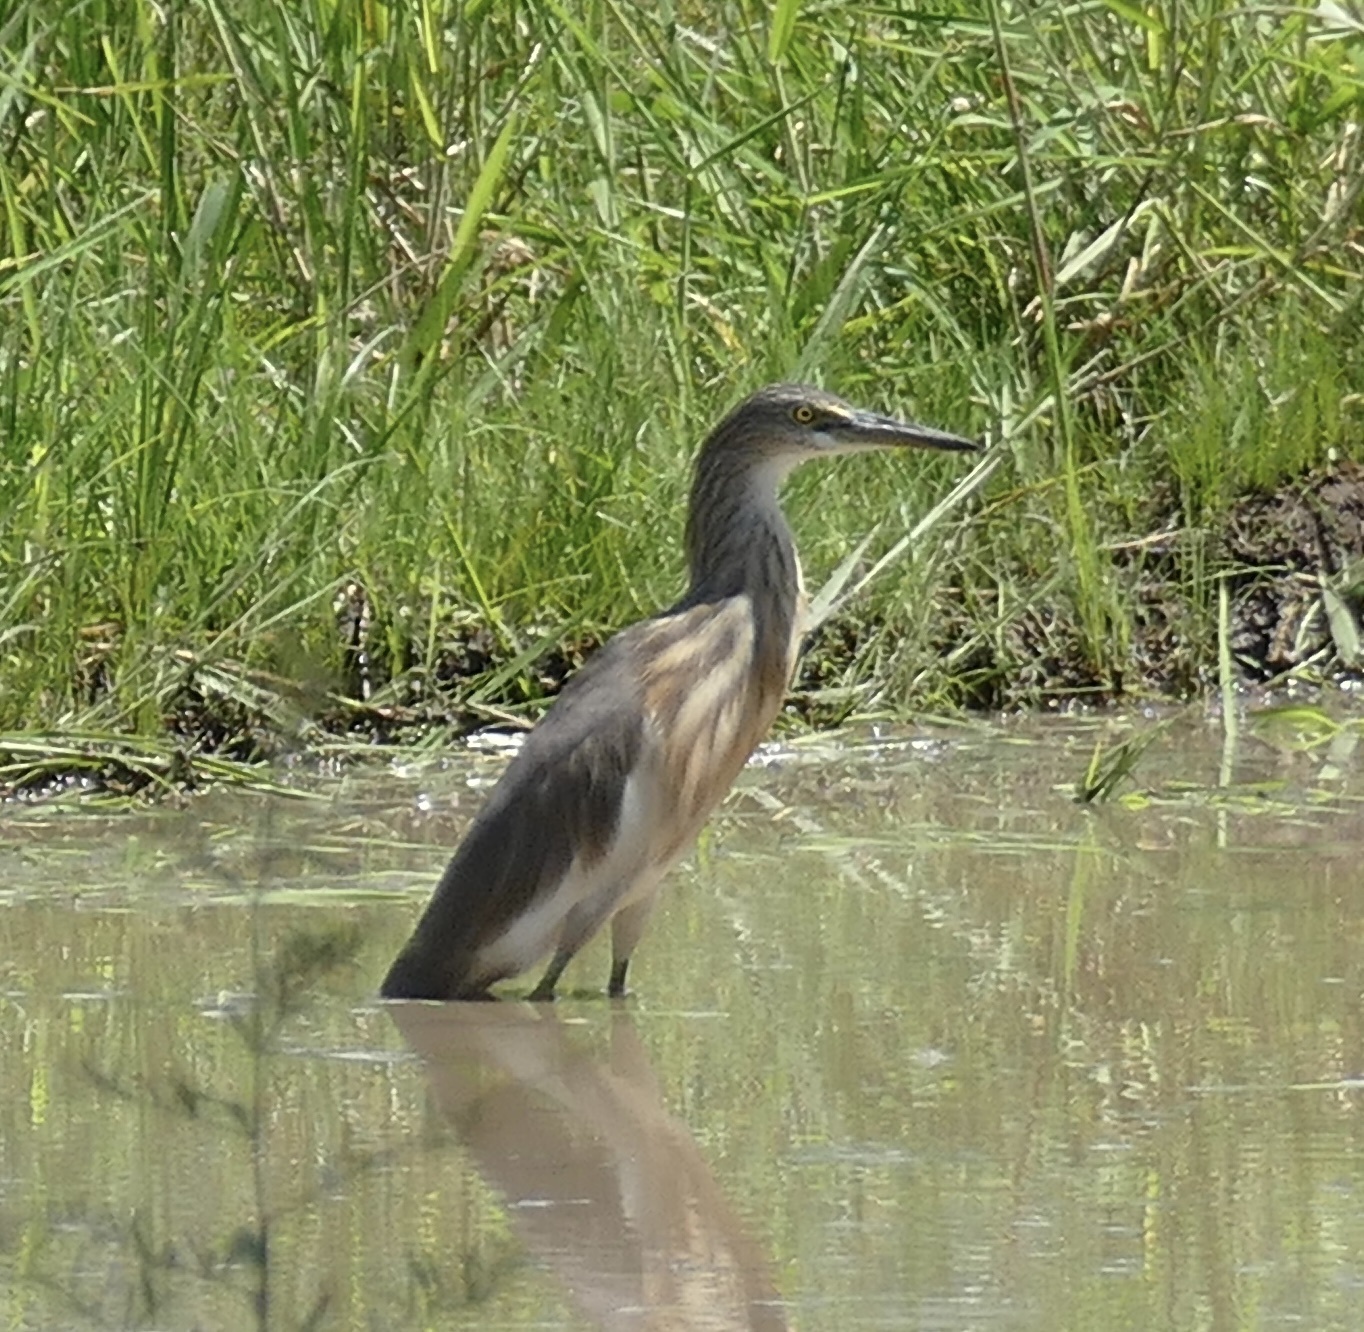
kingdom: Animalia
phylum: Chordata
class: Aves
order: Pelecaniformes
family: Ardeidae
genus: Ardeola
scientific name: Ardeola speciosa
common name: Javan pond heron
